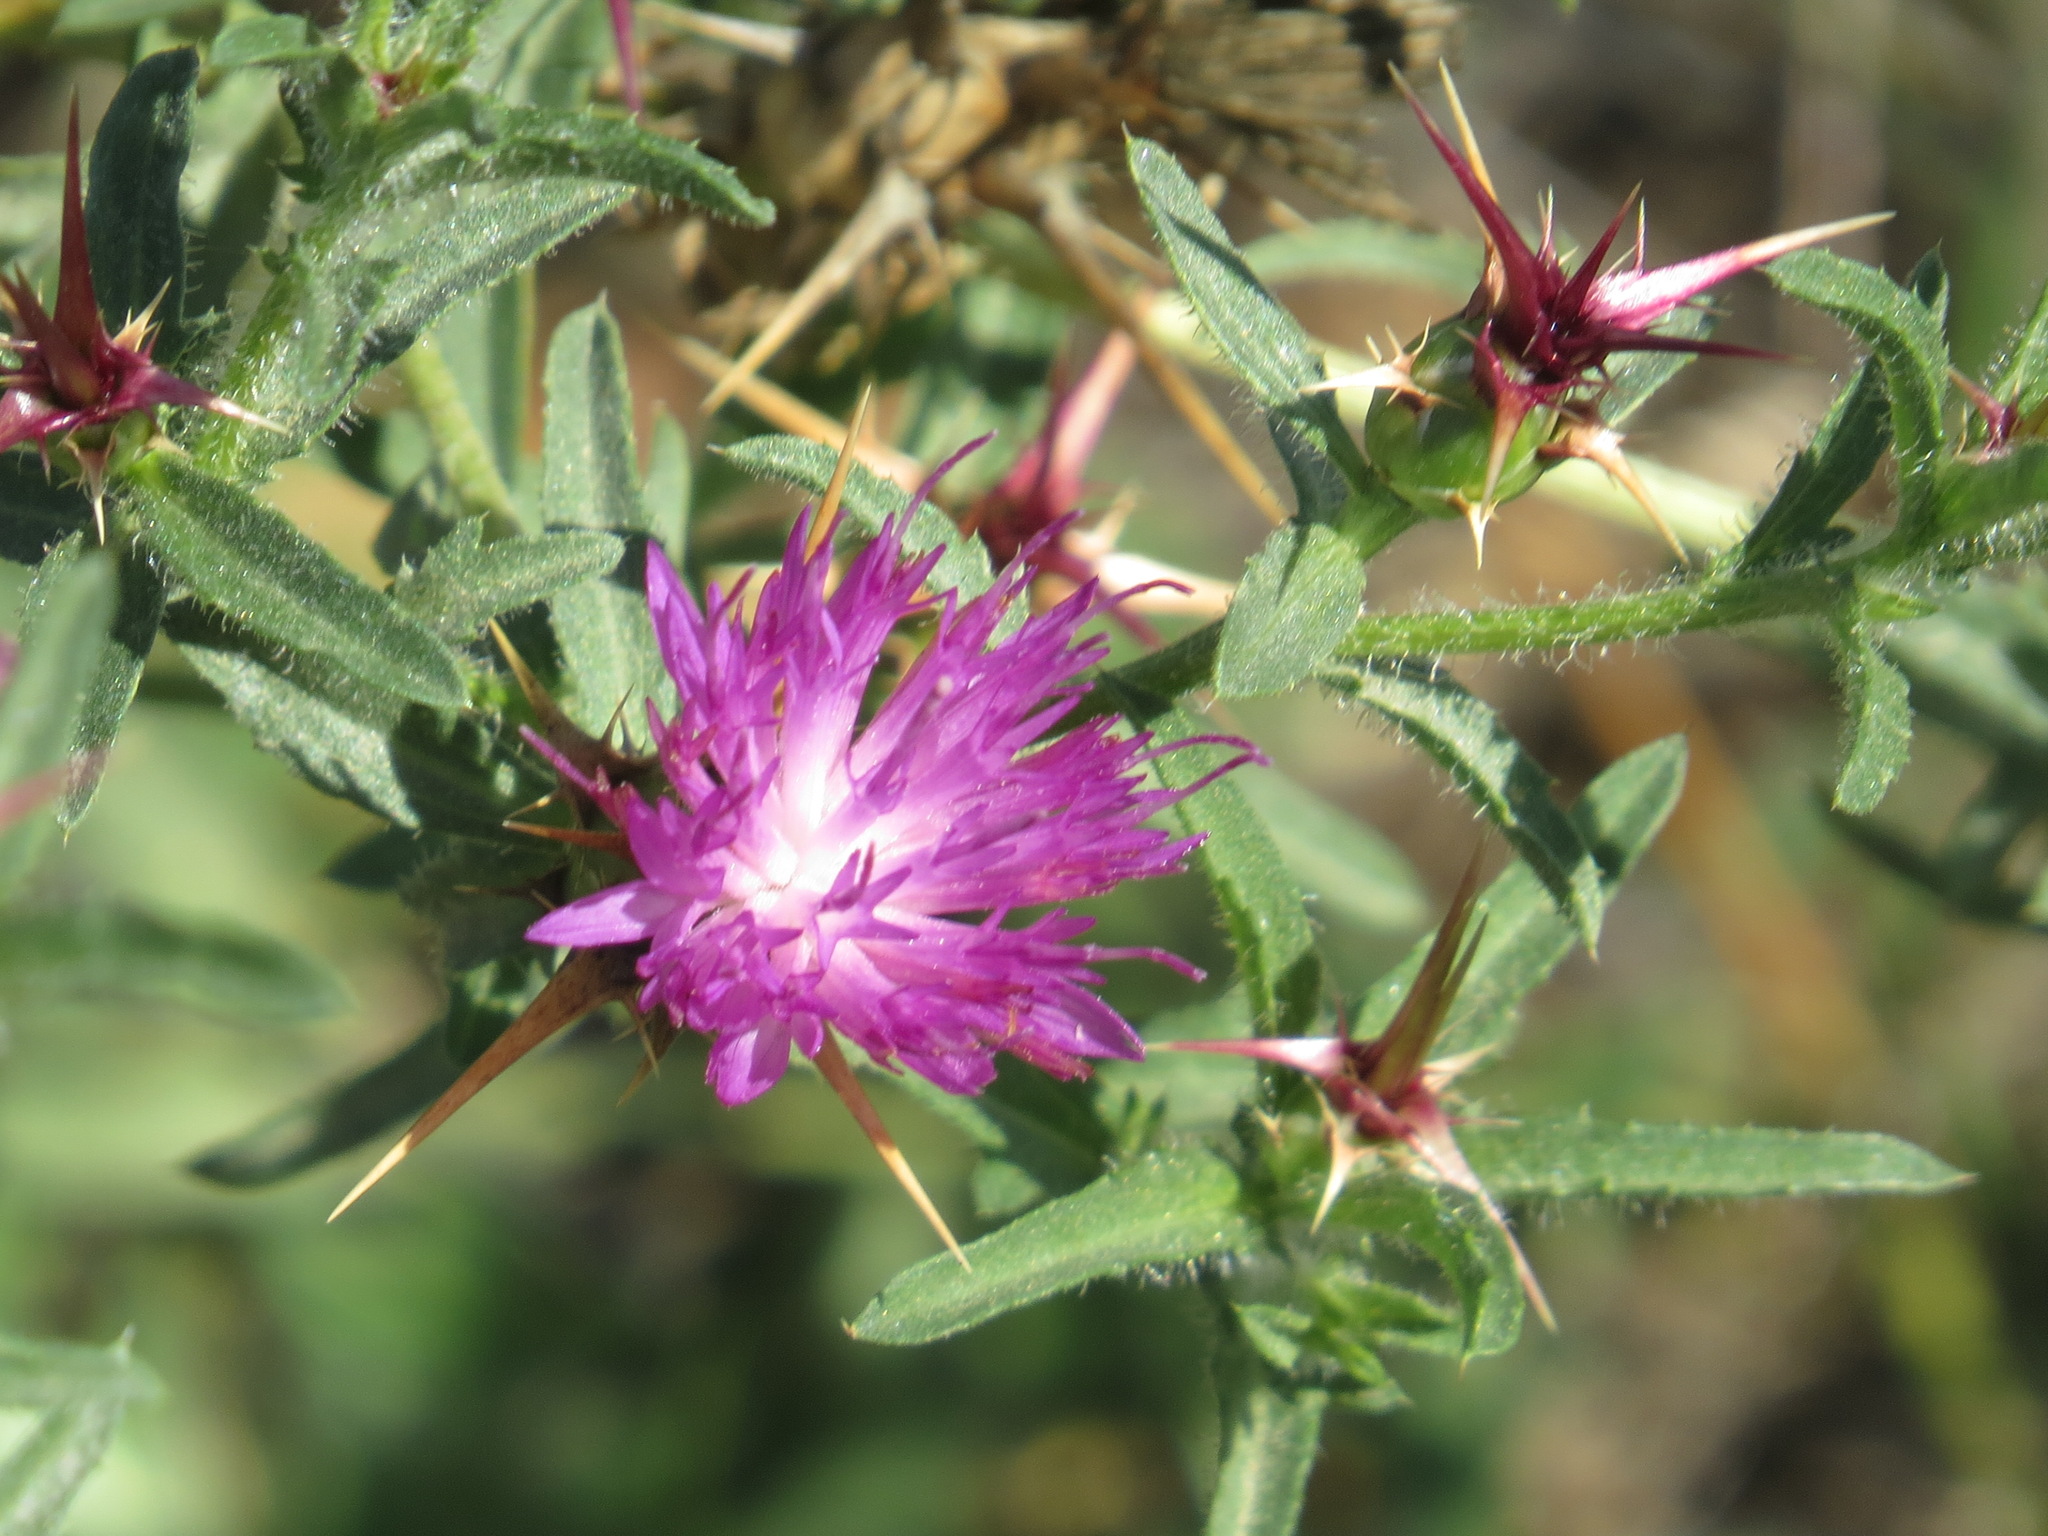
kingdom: Plantae
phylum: Tracheophyta
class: Magnoliopsida
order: Asterales
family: Asteraceae
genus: Centaurea
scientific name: Centaurea calcitrapa
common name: Red star-thistle
